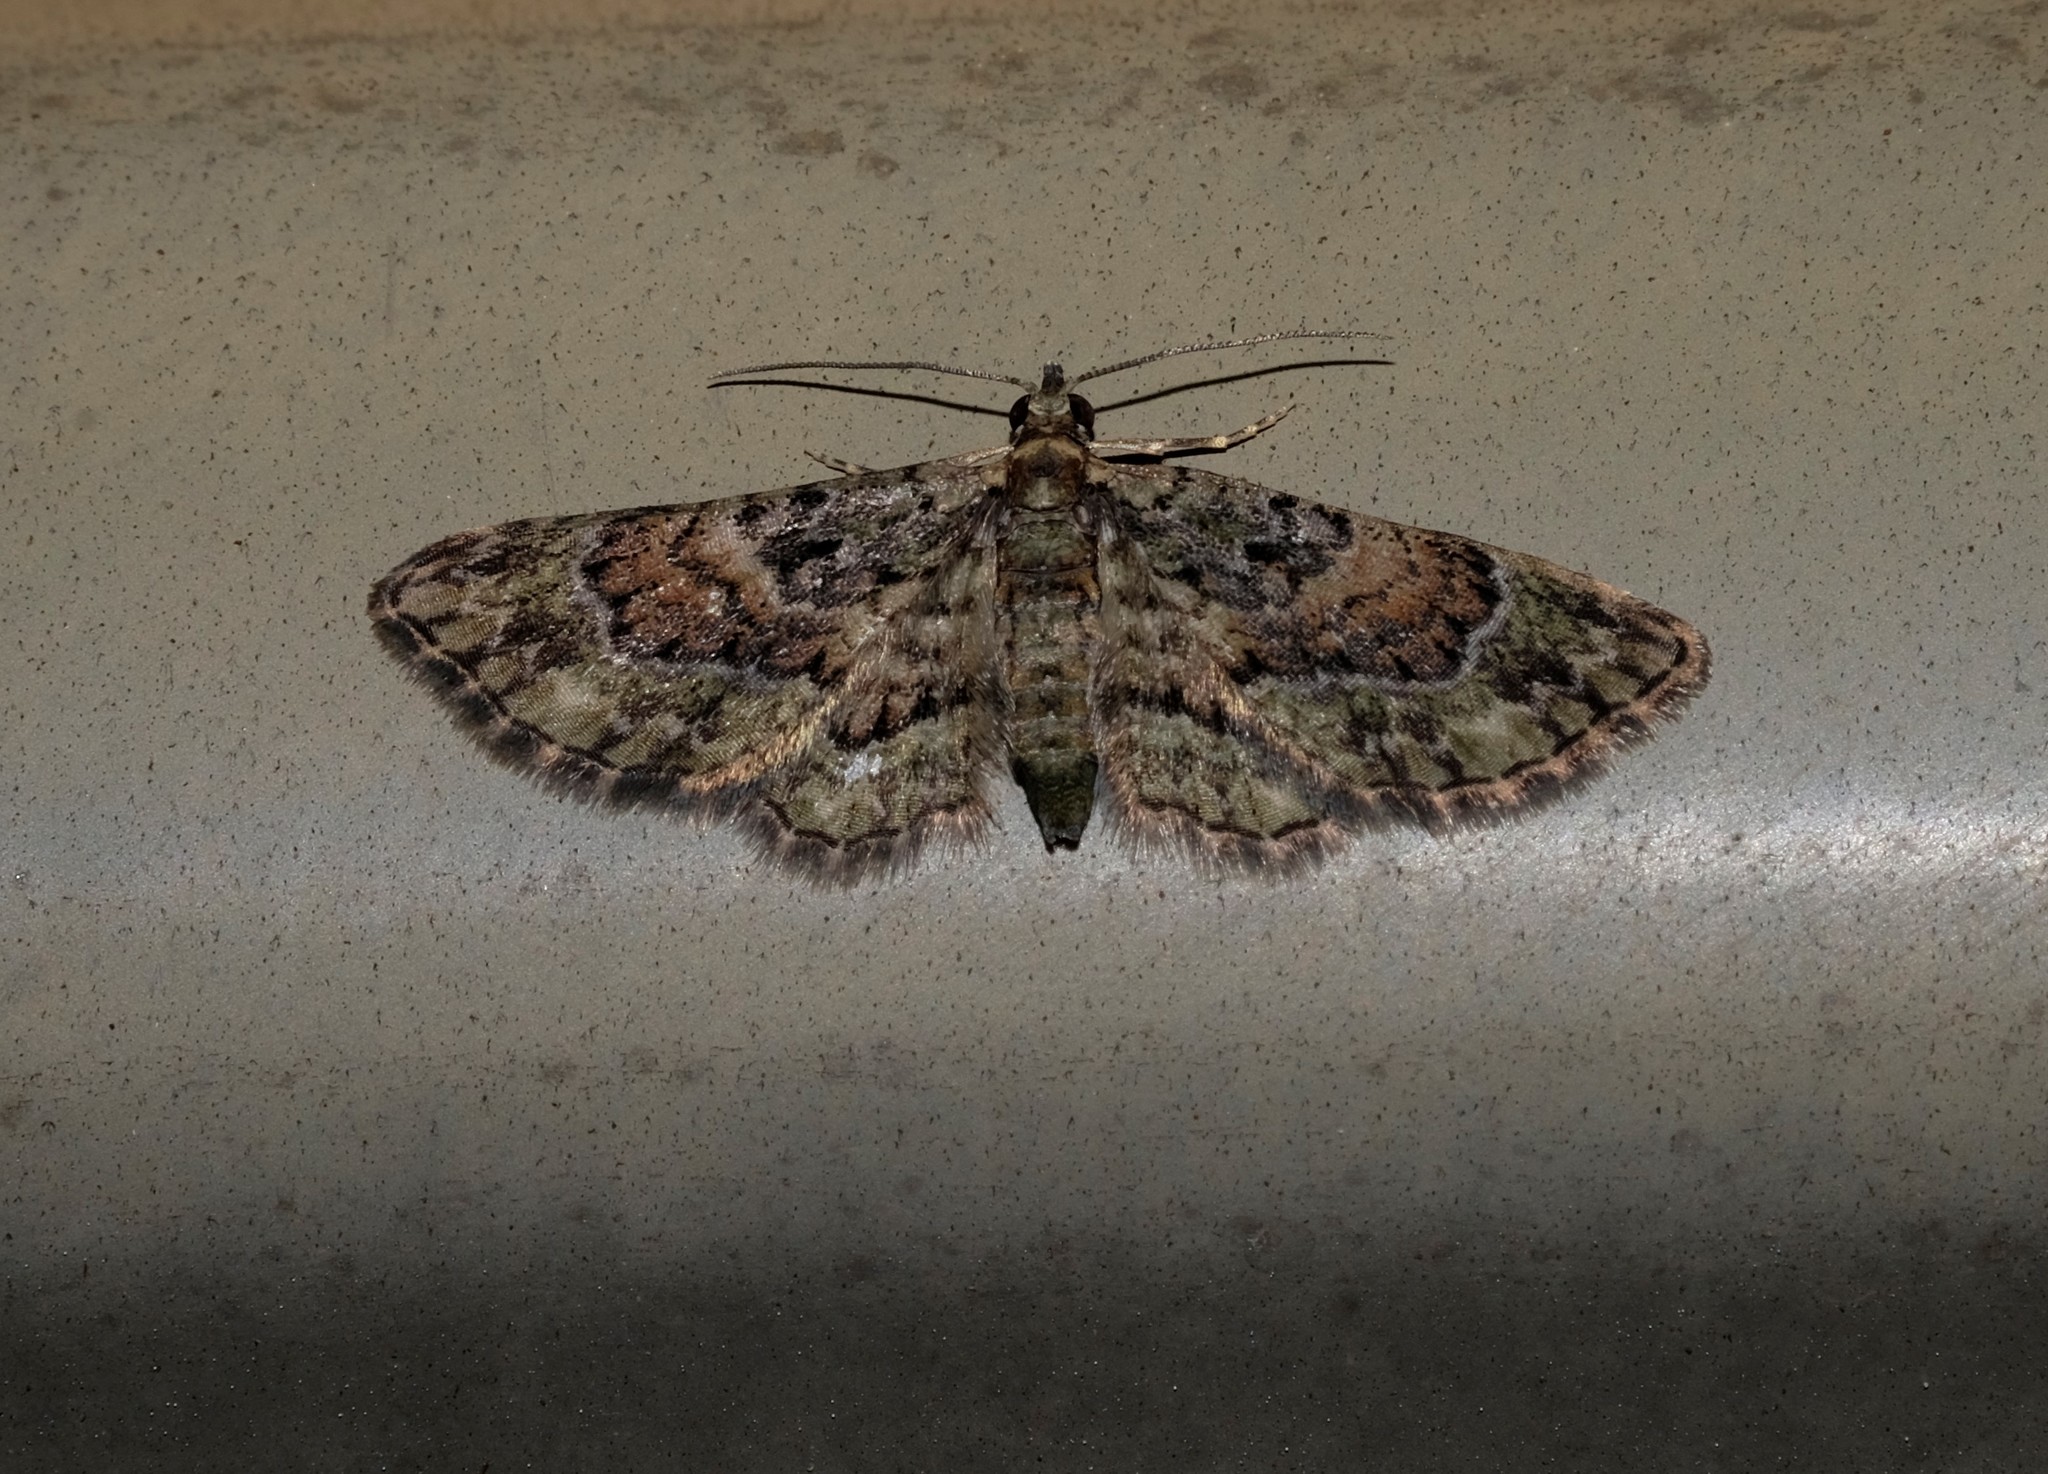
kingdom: Animalia
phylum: Arthropoda
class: Insecta
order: Lepidoptera
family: Geometridae
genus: Chloroclystis
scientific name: Chloroclystis catastreptes
